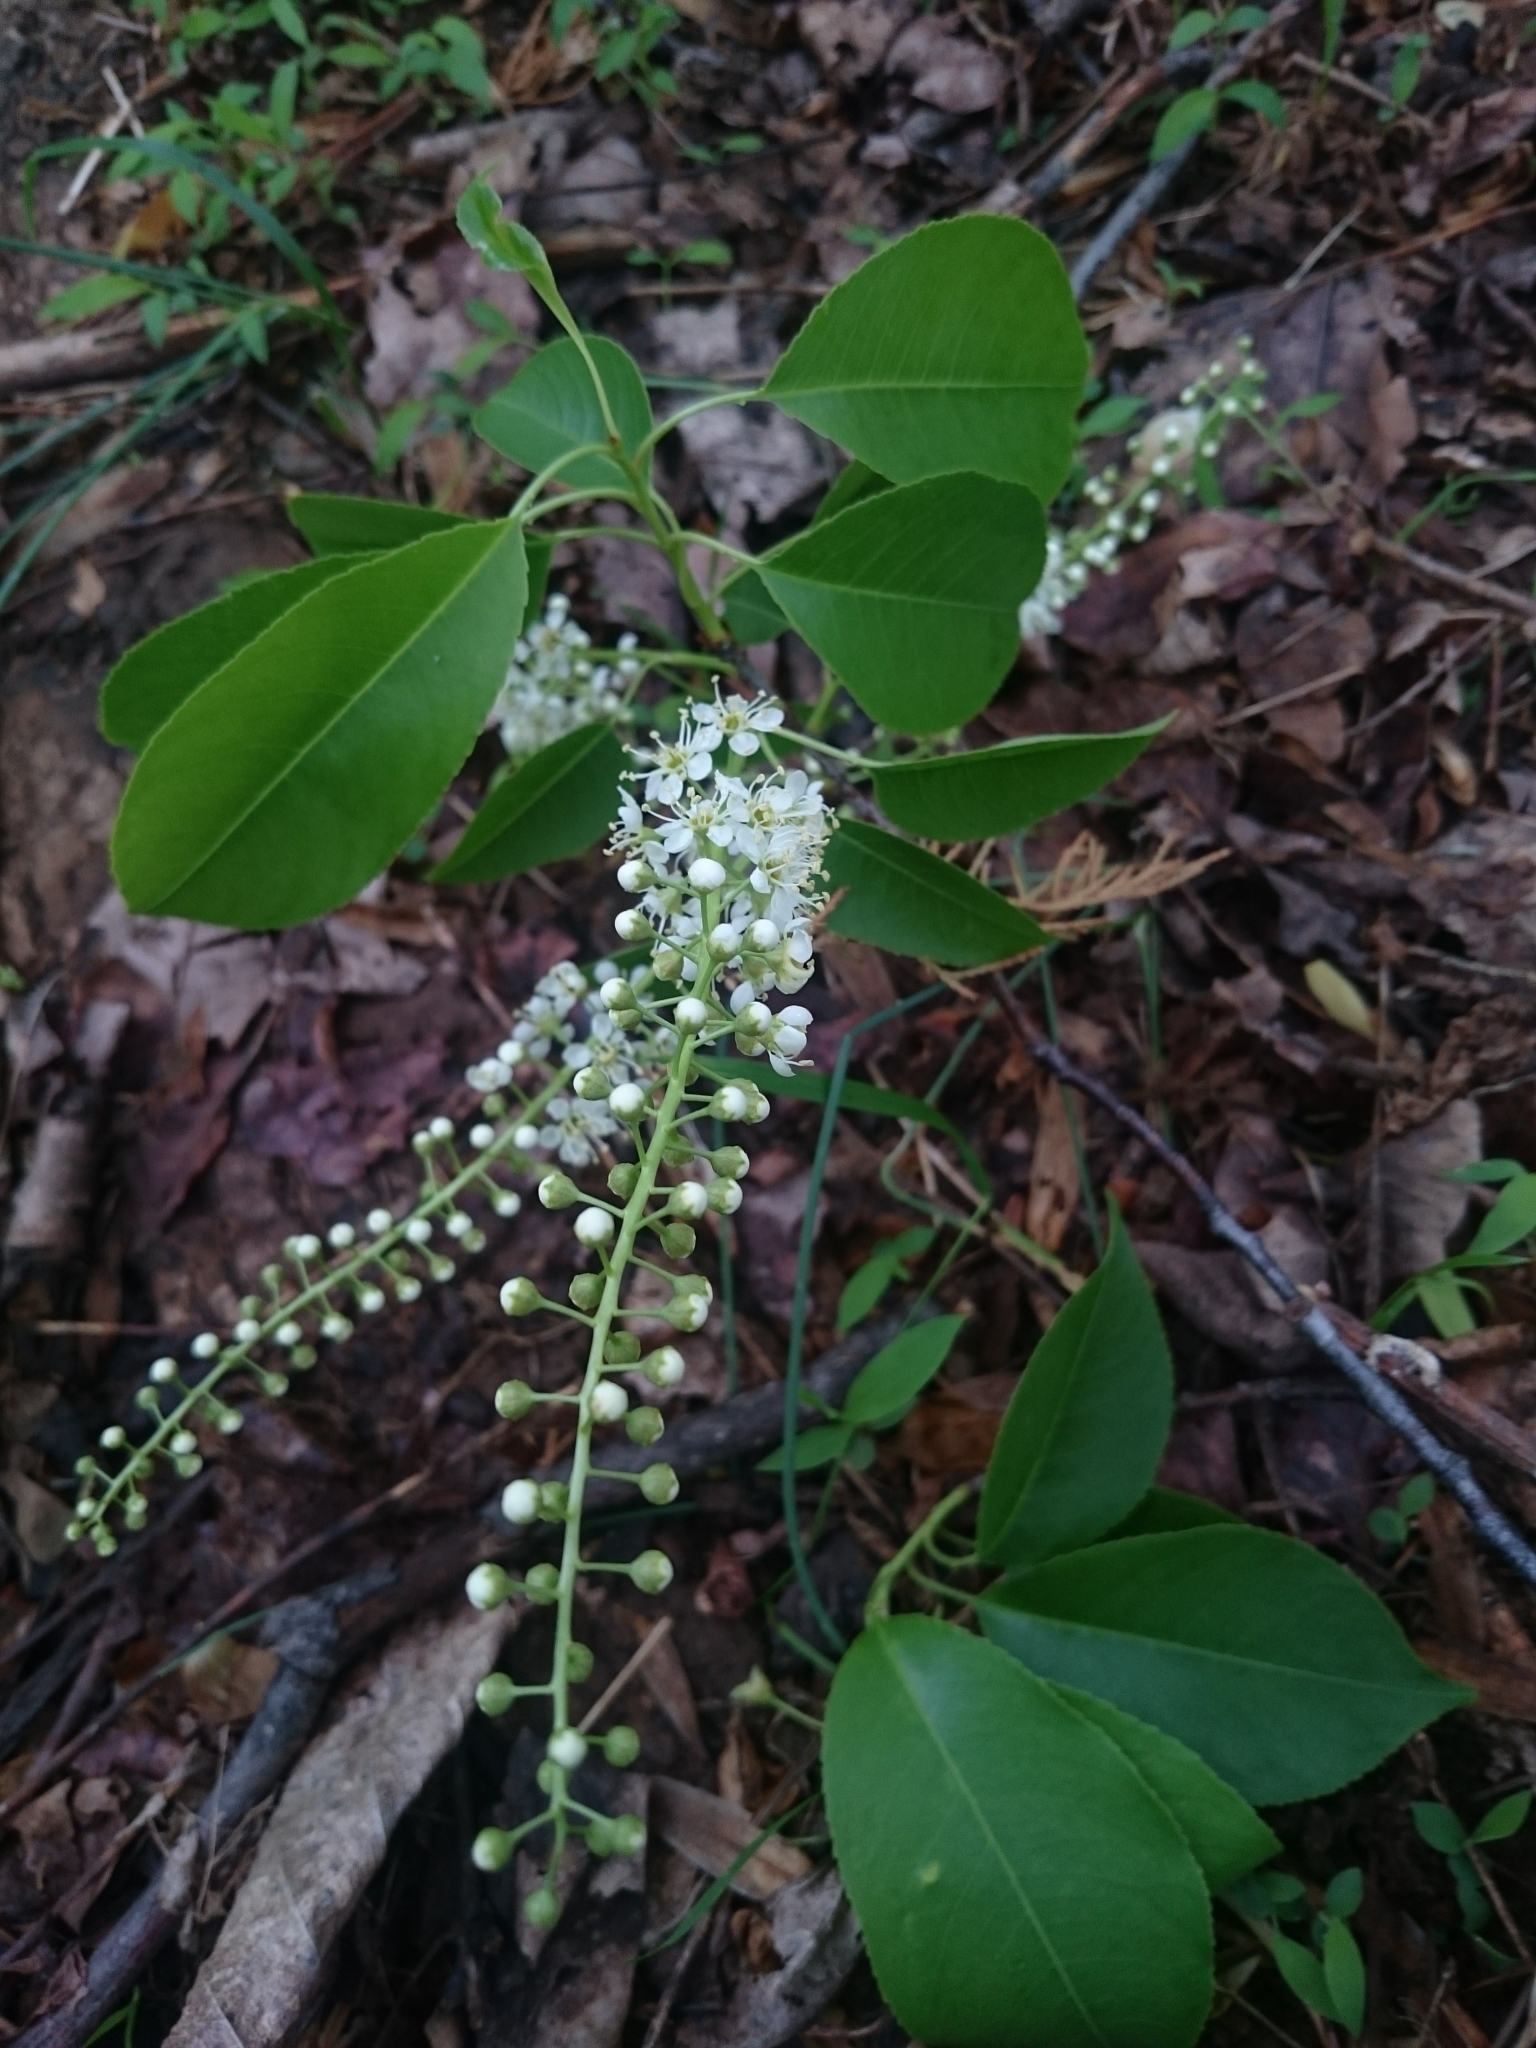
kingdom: Plantae
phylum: Tracheophyta
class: Magnoliopsida
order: Rosales
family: Rosaceae
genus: Prunus
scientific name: Prunus serotina
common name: Black cherry
